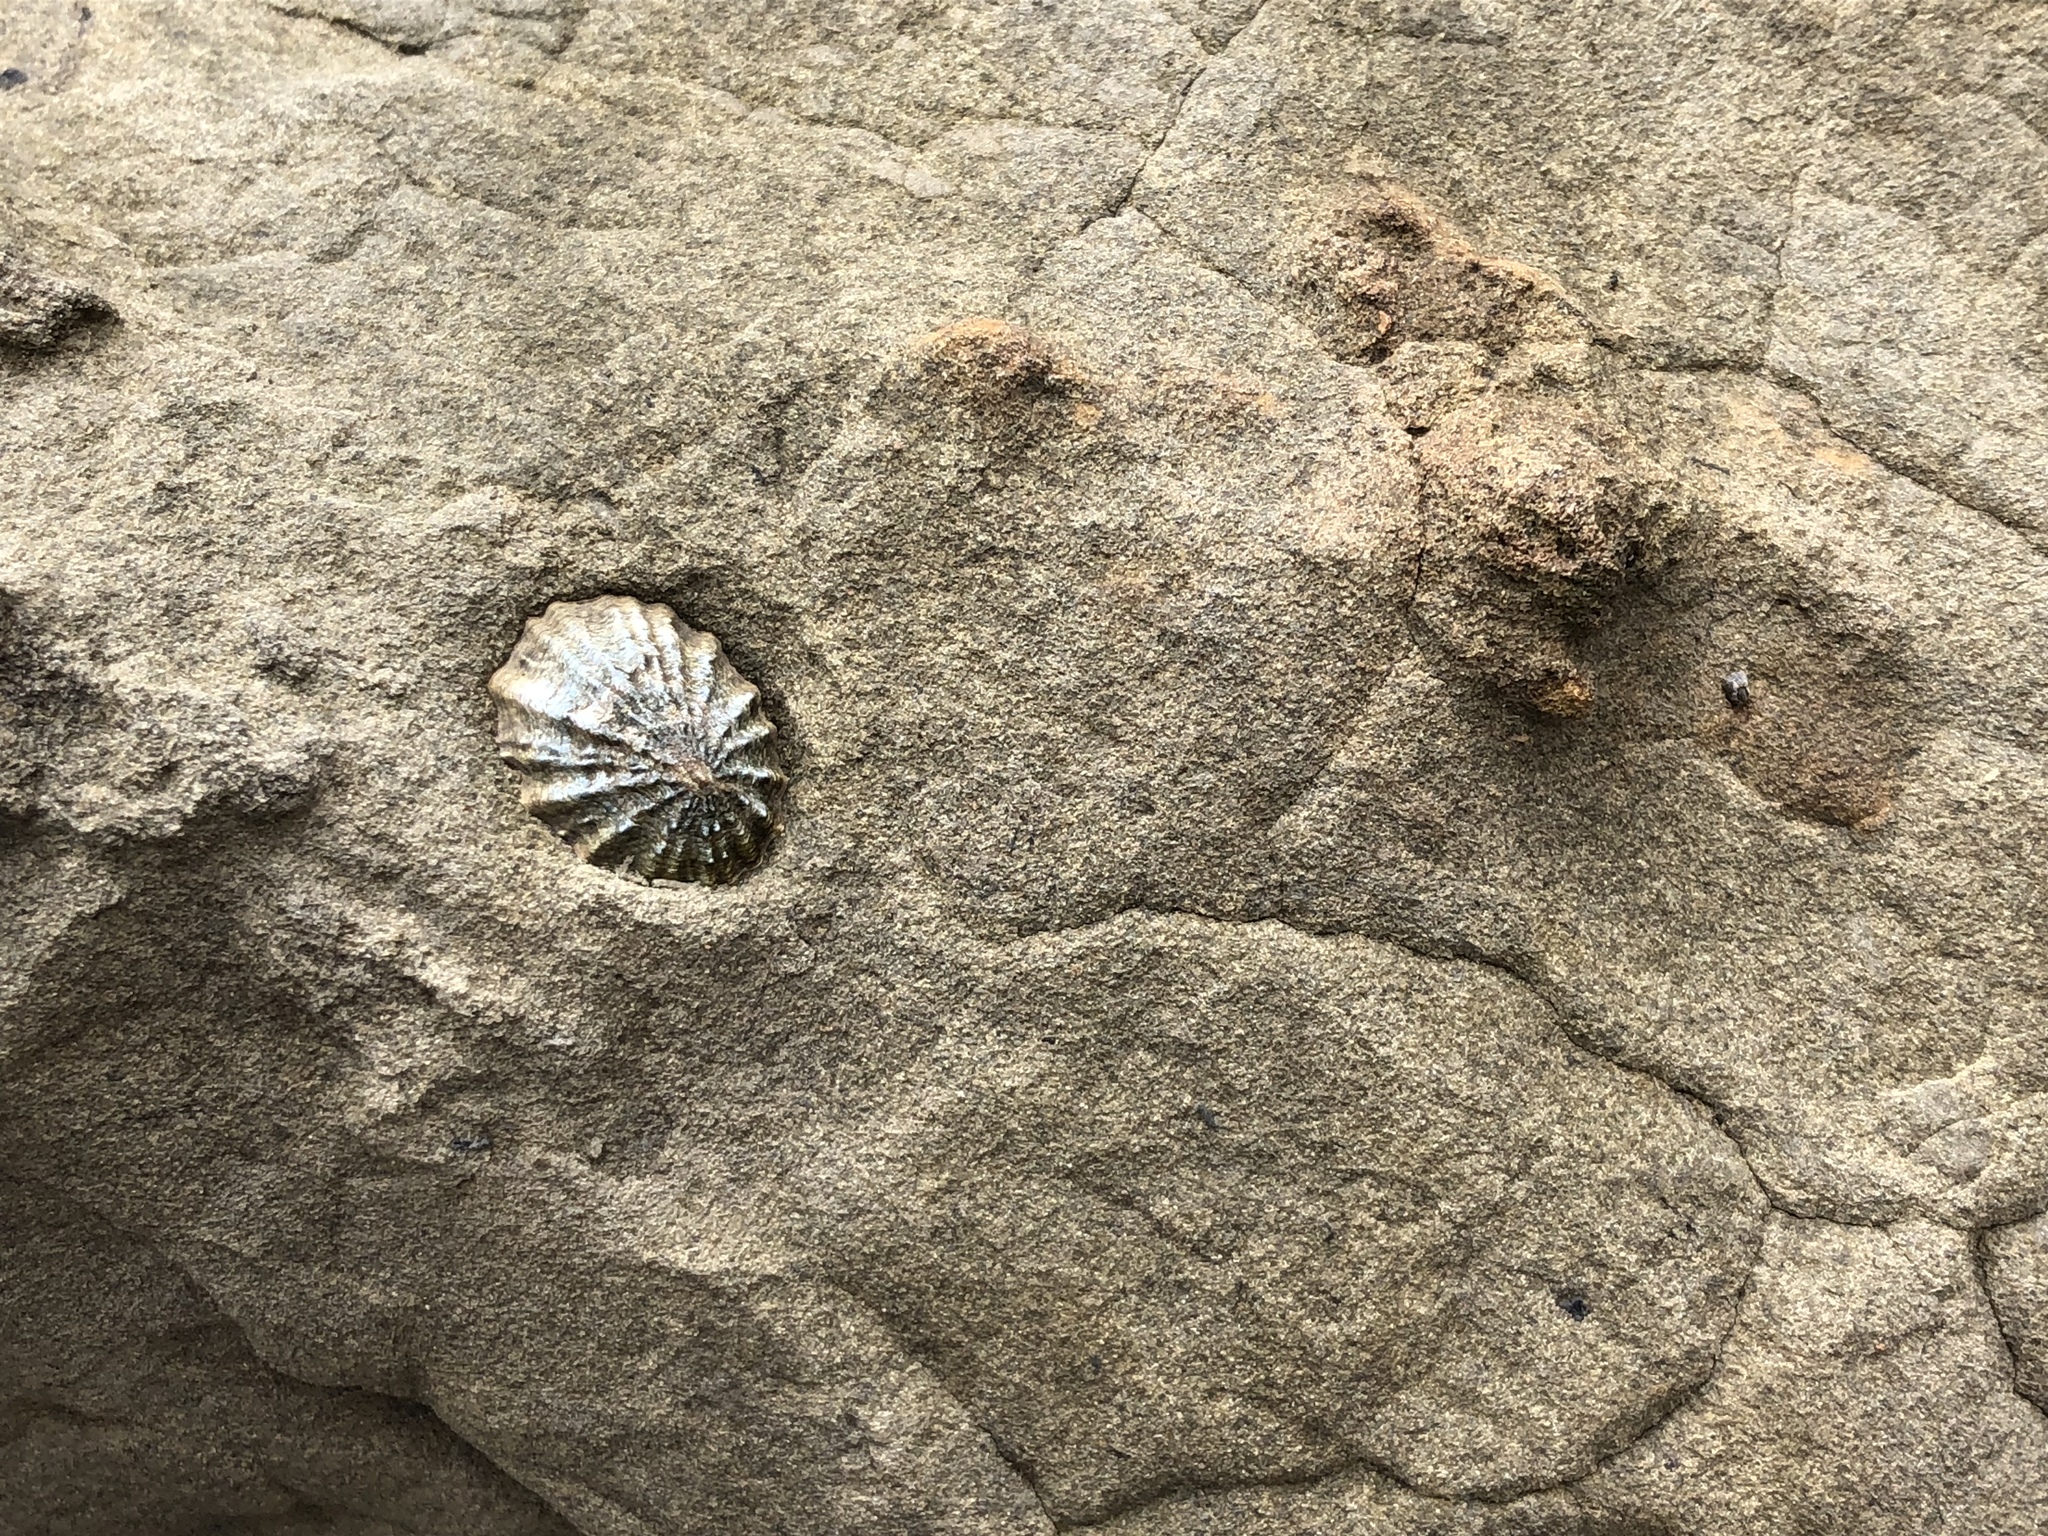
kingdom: Animalia
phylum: Mollusca
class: Gastropoda
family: Lottiidae
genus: Lottia
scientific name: Lottia scabra
